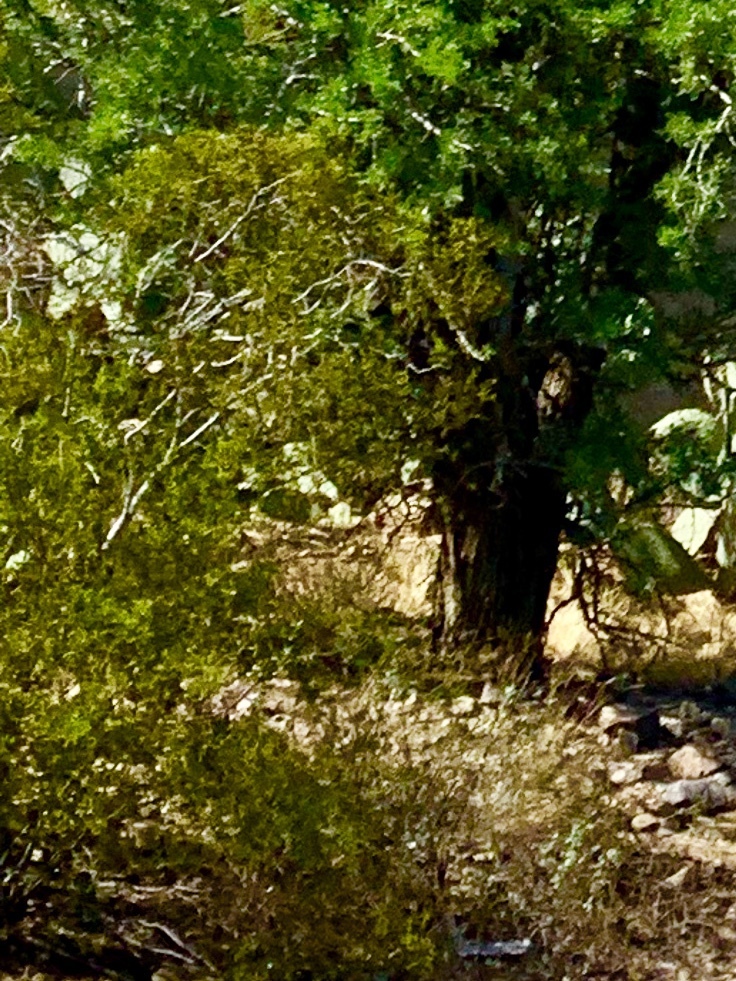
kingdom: Plantae
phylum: Tracheophyta
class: Magnoliopsida
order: Zygophyllales
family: Zygophyllaceae
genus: Larrea
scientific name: Larrea tridentata
